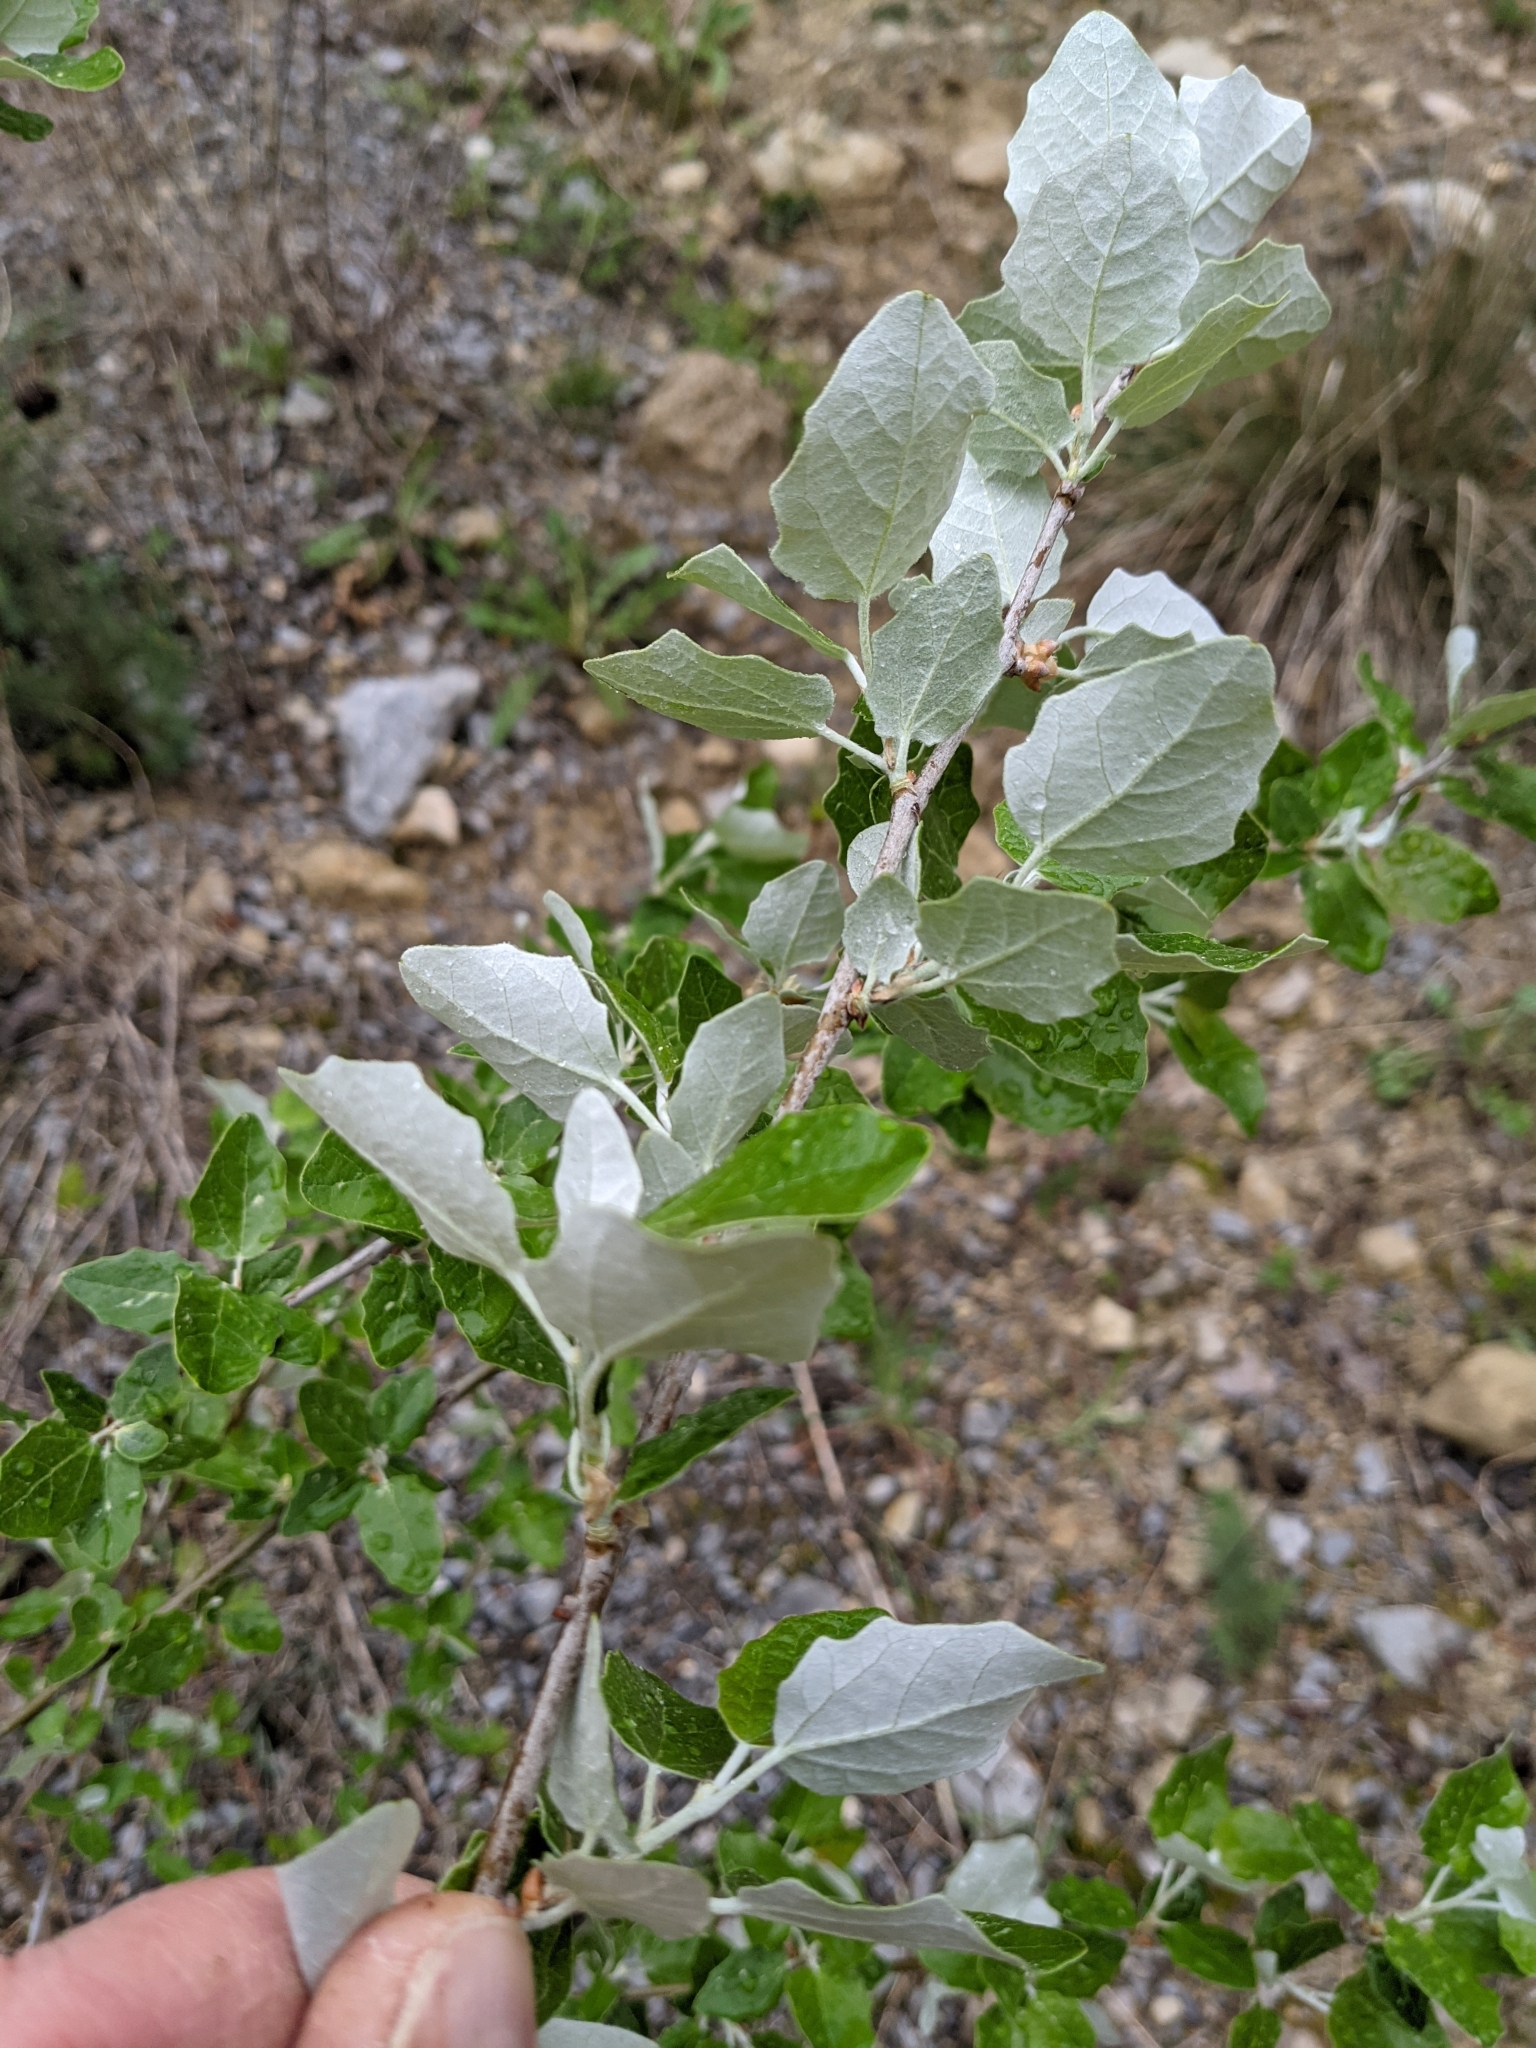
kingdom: Plantae
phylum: Tracheophyta
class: Magnoliopsida
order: Malpighiales
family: Salicaceae
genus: Populus
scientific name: Populus alba
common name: White poplar
